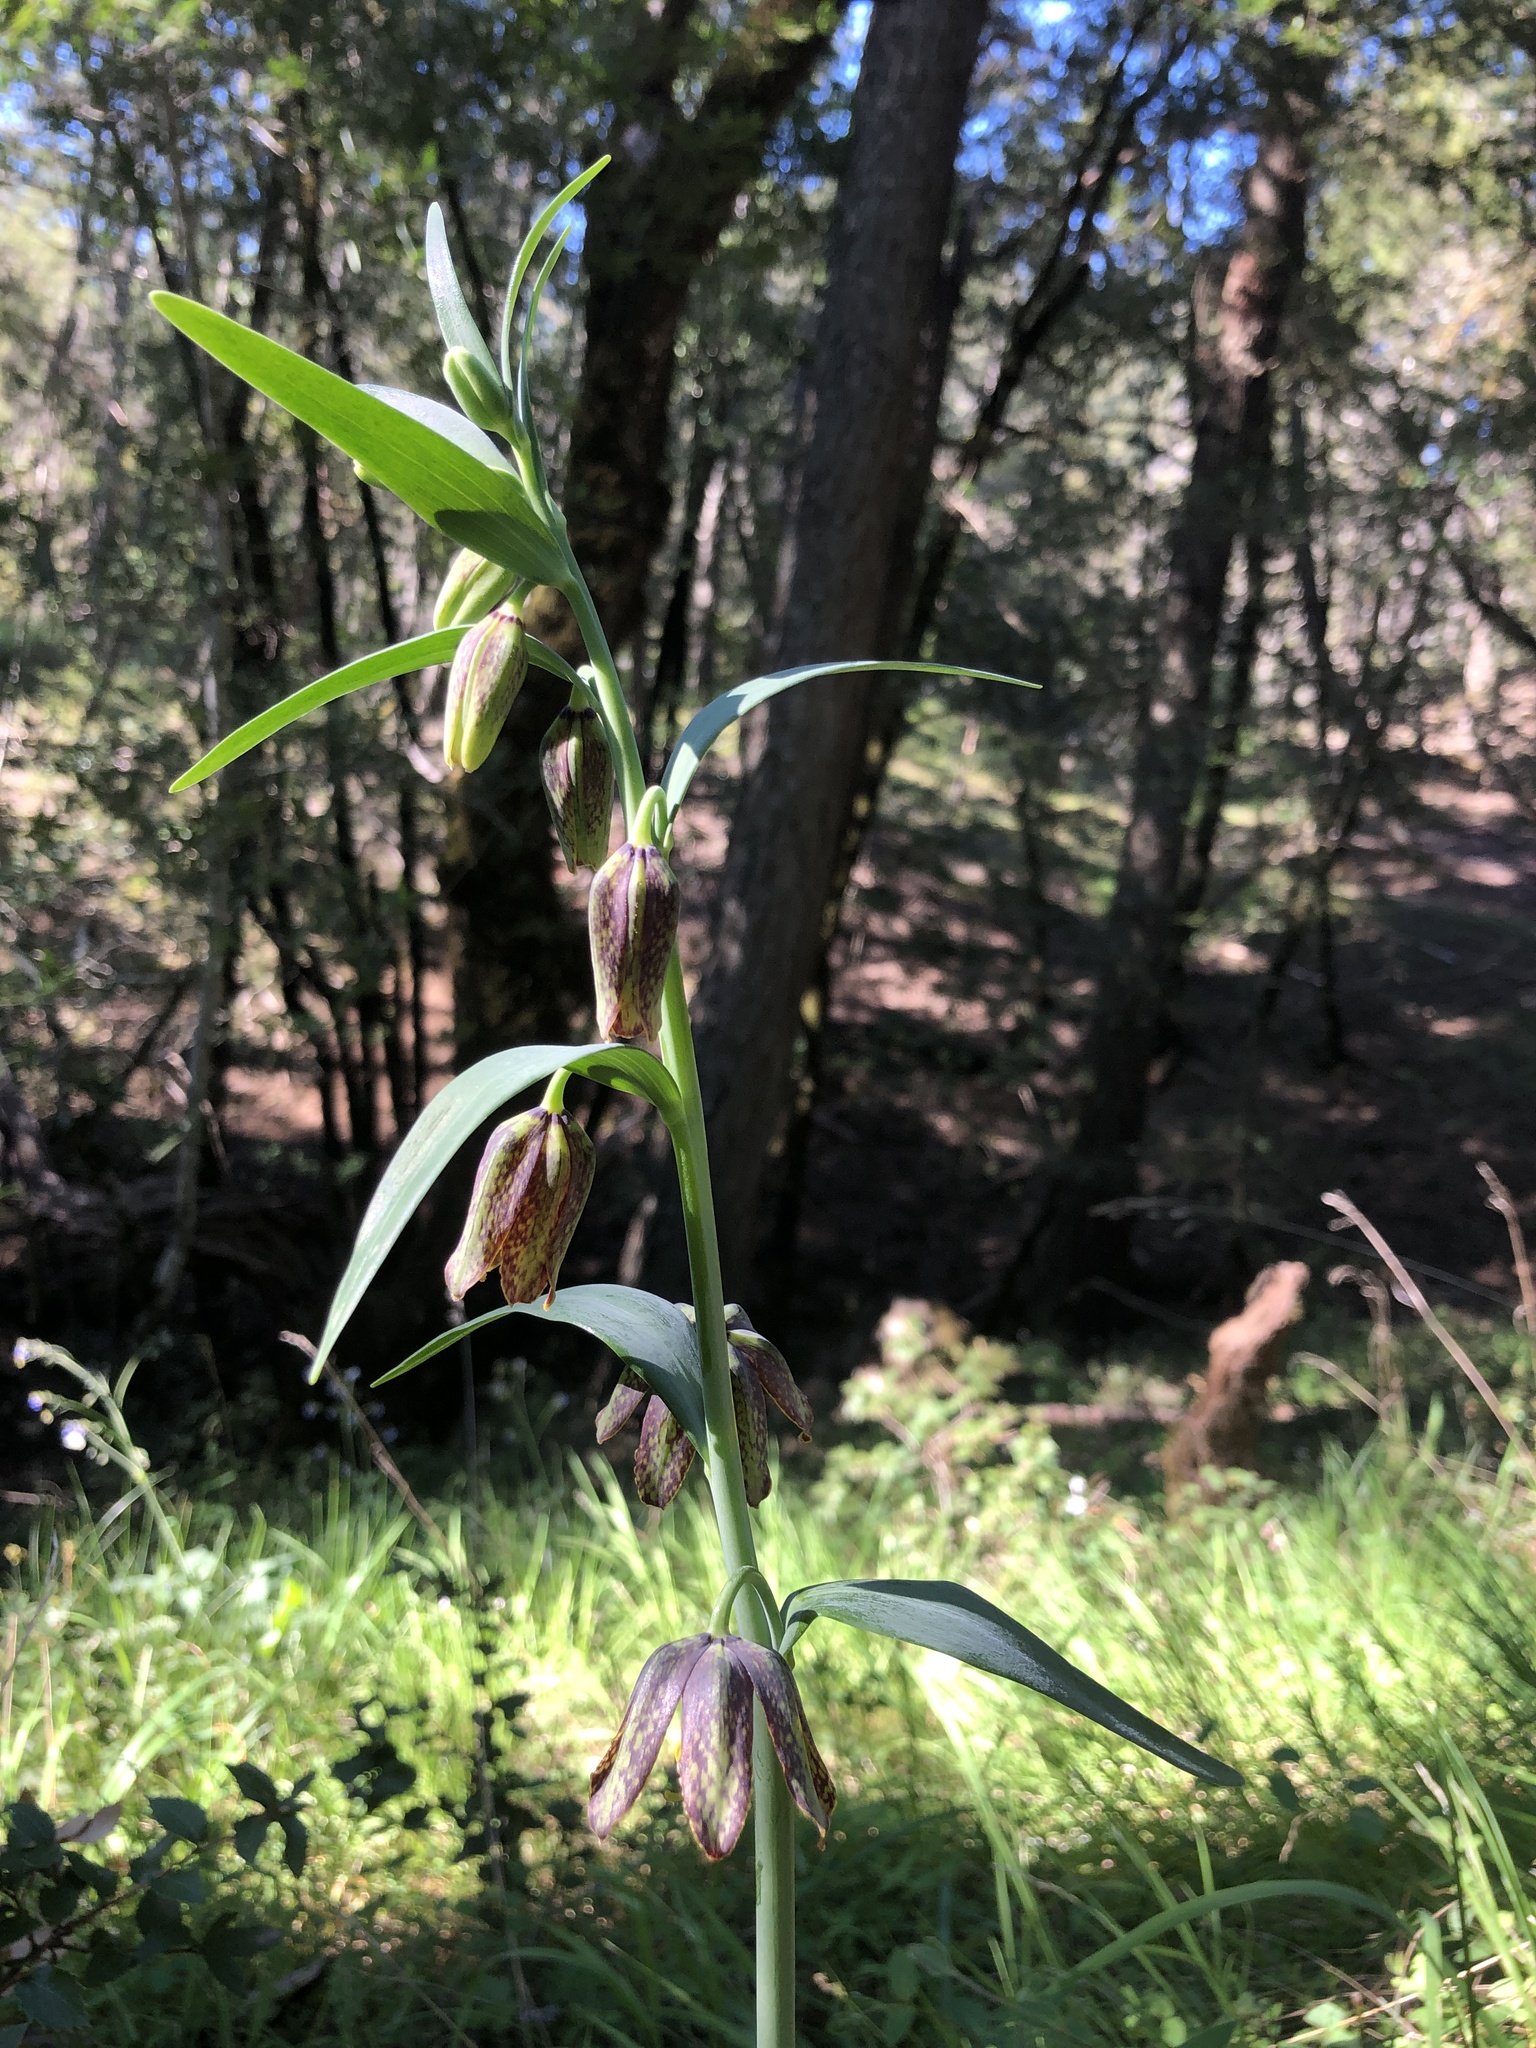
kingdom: Plantae
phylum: Tracheophyta
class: Liliopsida
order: Liliales
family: Liliaceae
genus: Fritillaria
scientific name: Fritillaria affinis
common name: Ojai fritillary
